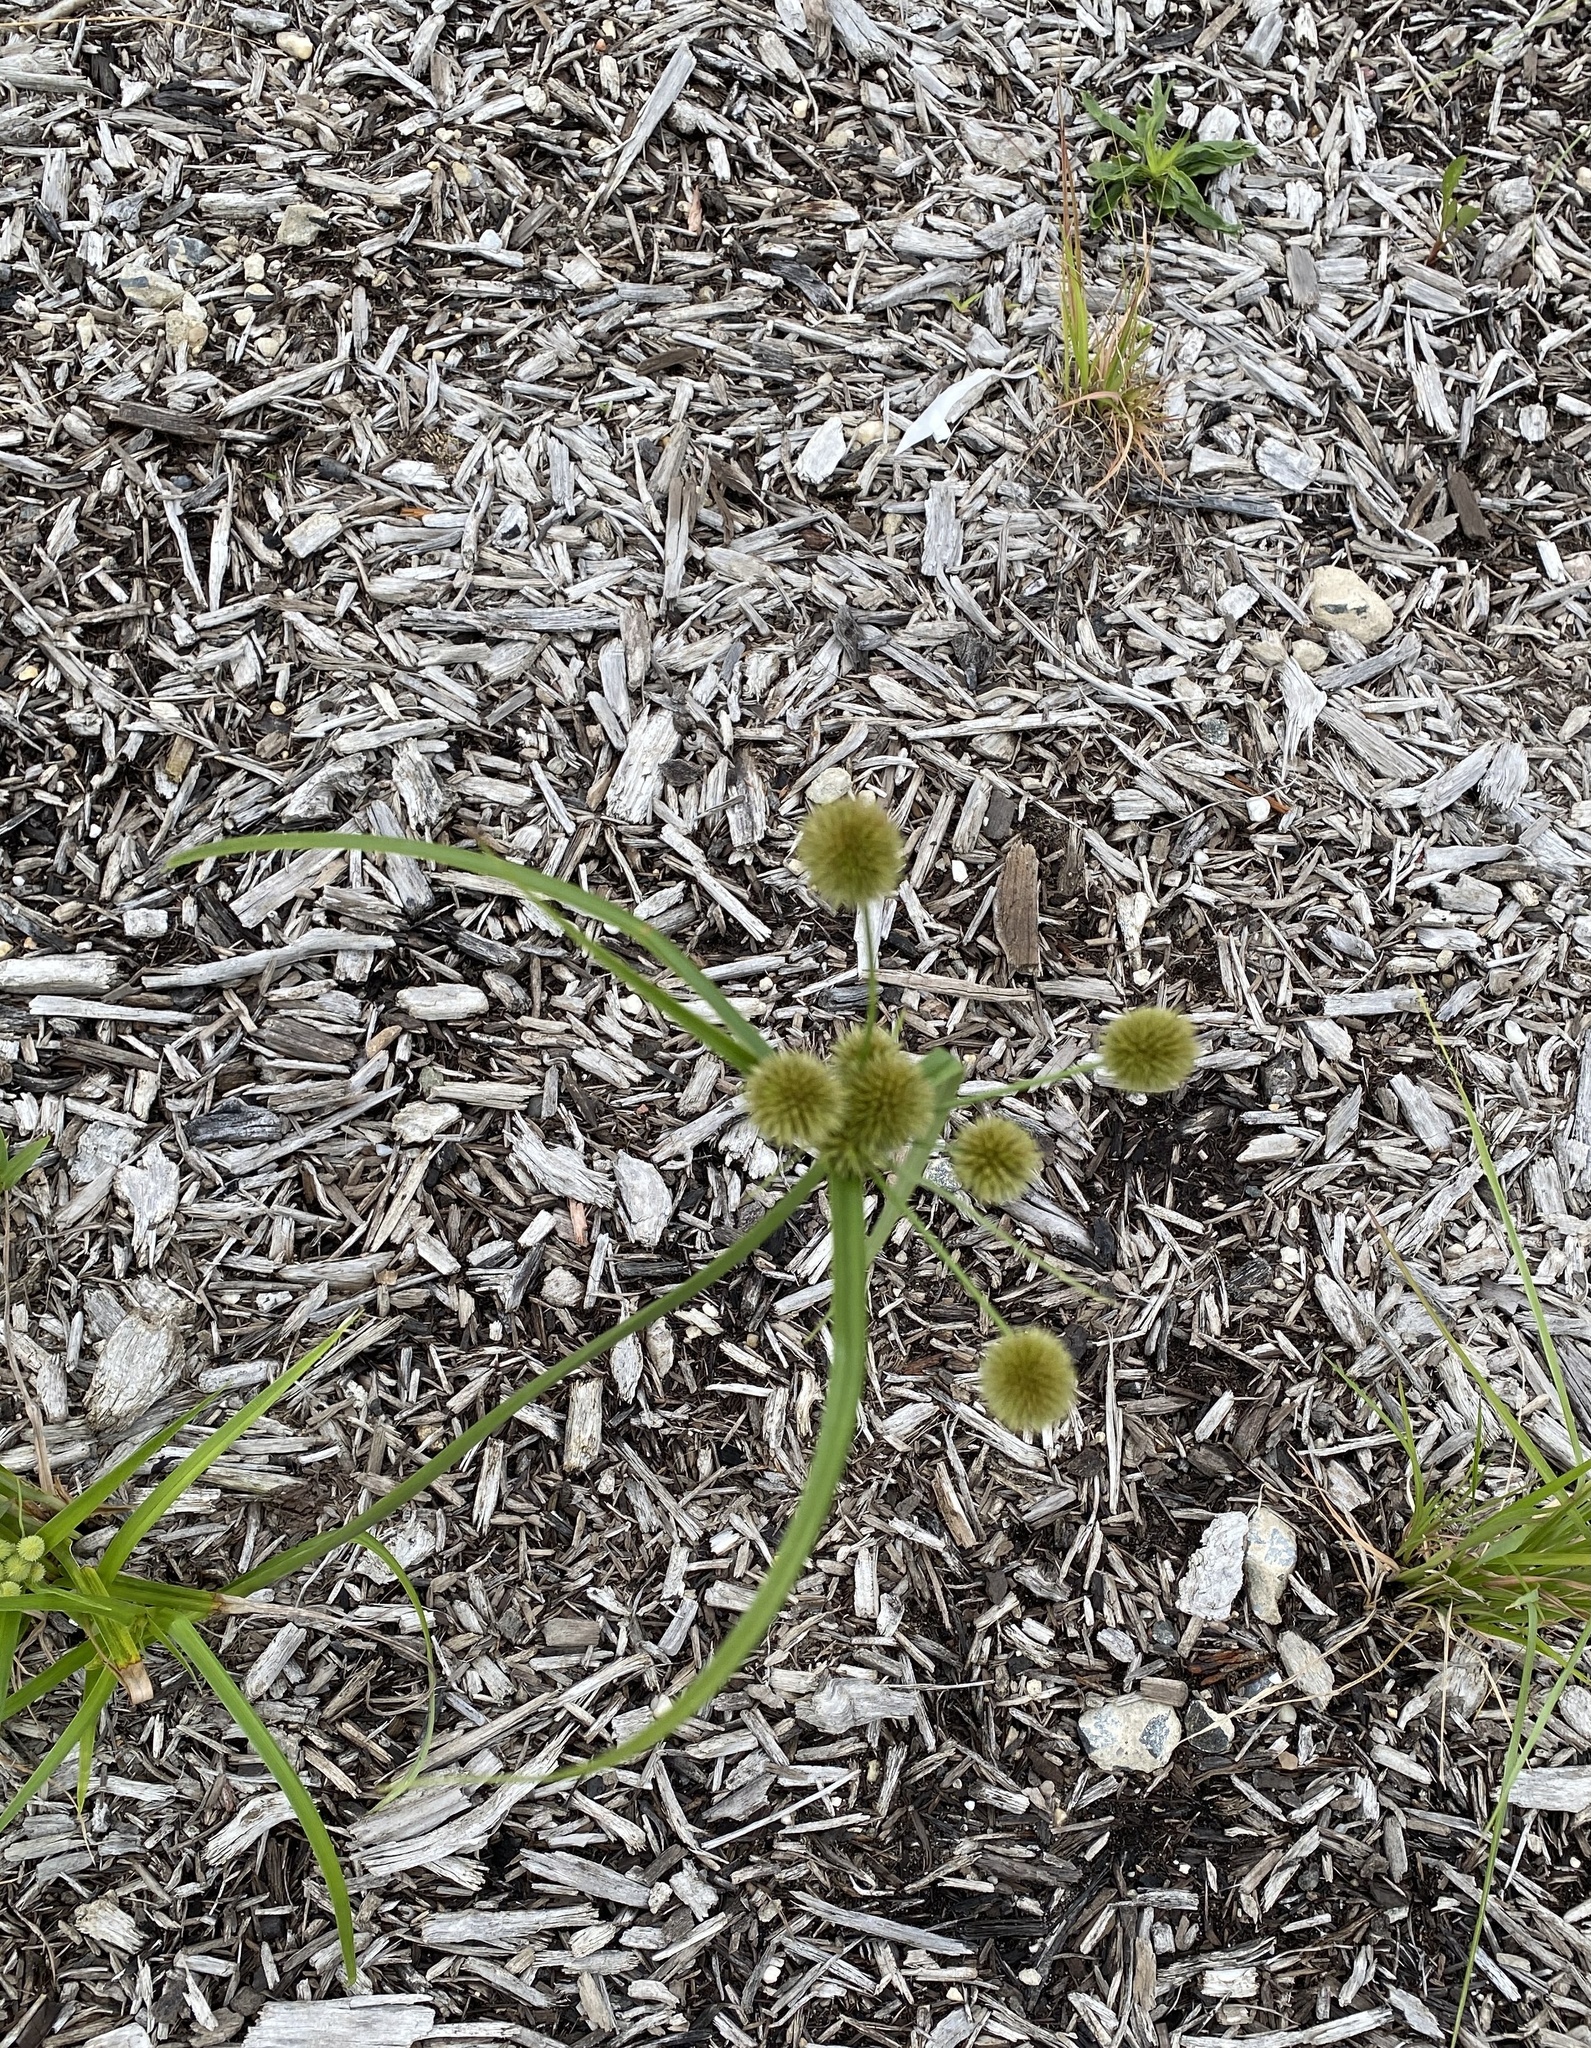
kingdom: Plantae
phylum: Tracheophyta
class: Liliopsida
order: Poales
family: Cyperaceae
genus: Cyperus
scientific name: Cyperus echinatus
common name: Teasel sedge
